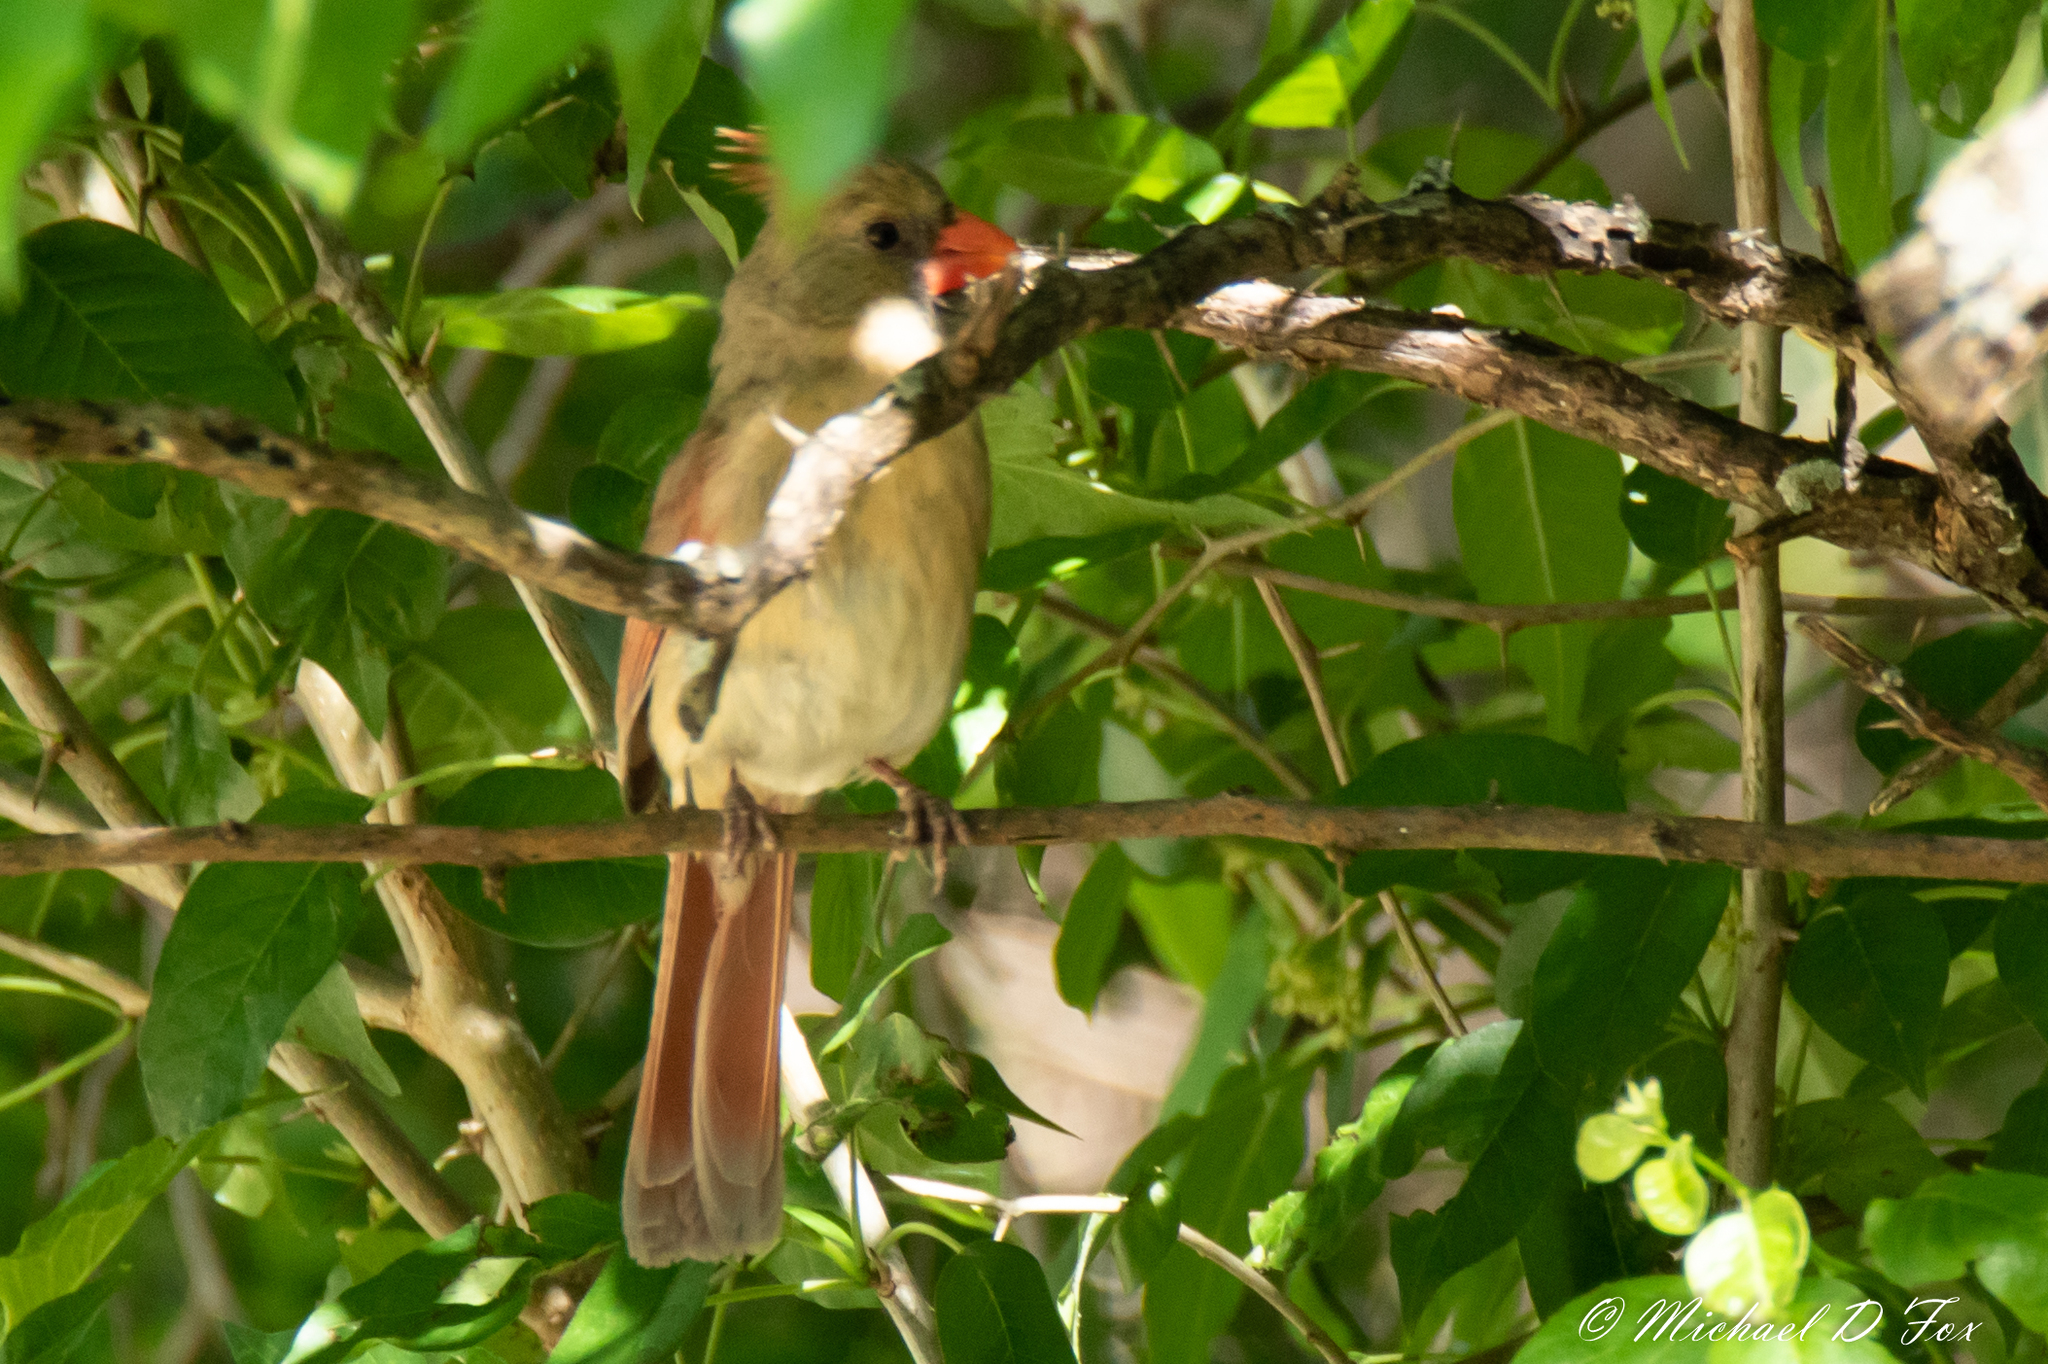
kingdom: Animalia
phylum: Chordata
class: Aves
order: Passeriformes
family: Cardinalidae
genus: Cardinalis
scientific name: Cardinalis cardinalis
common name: Northern cardinal
